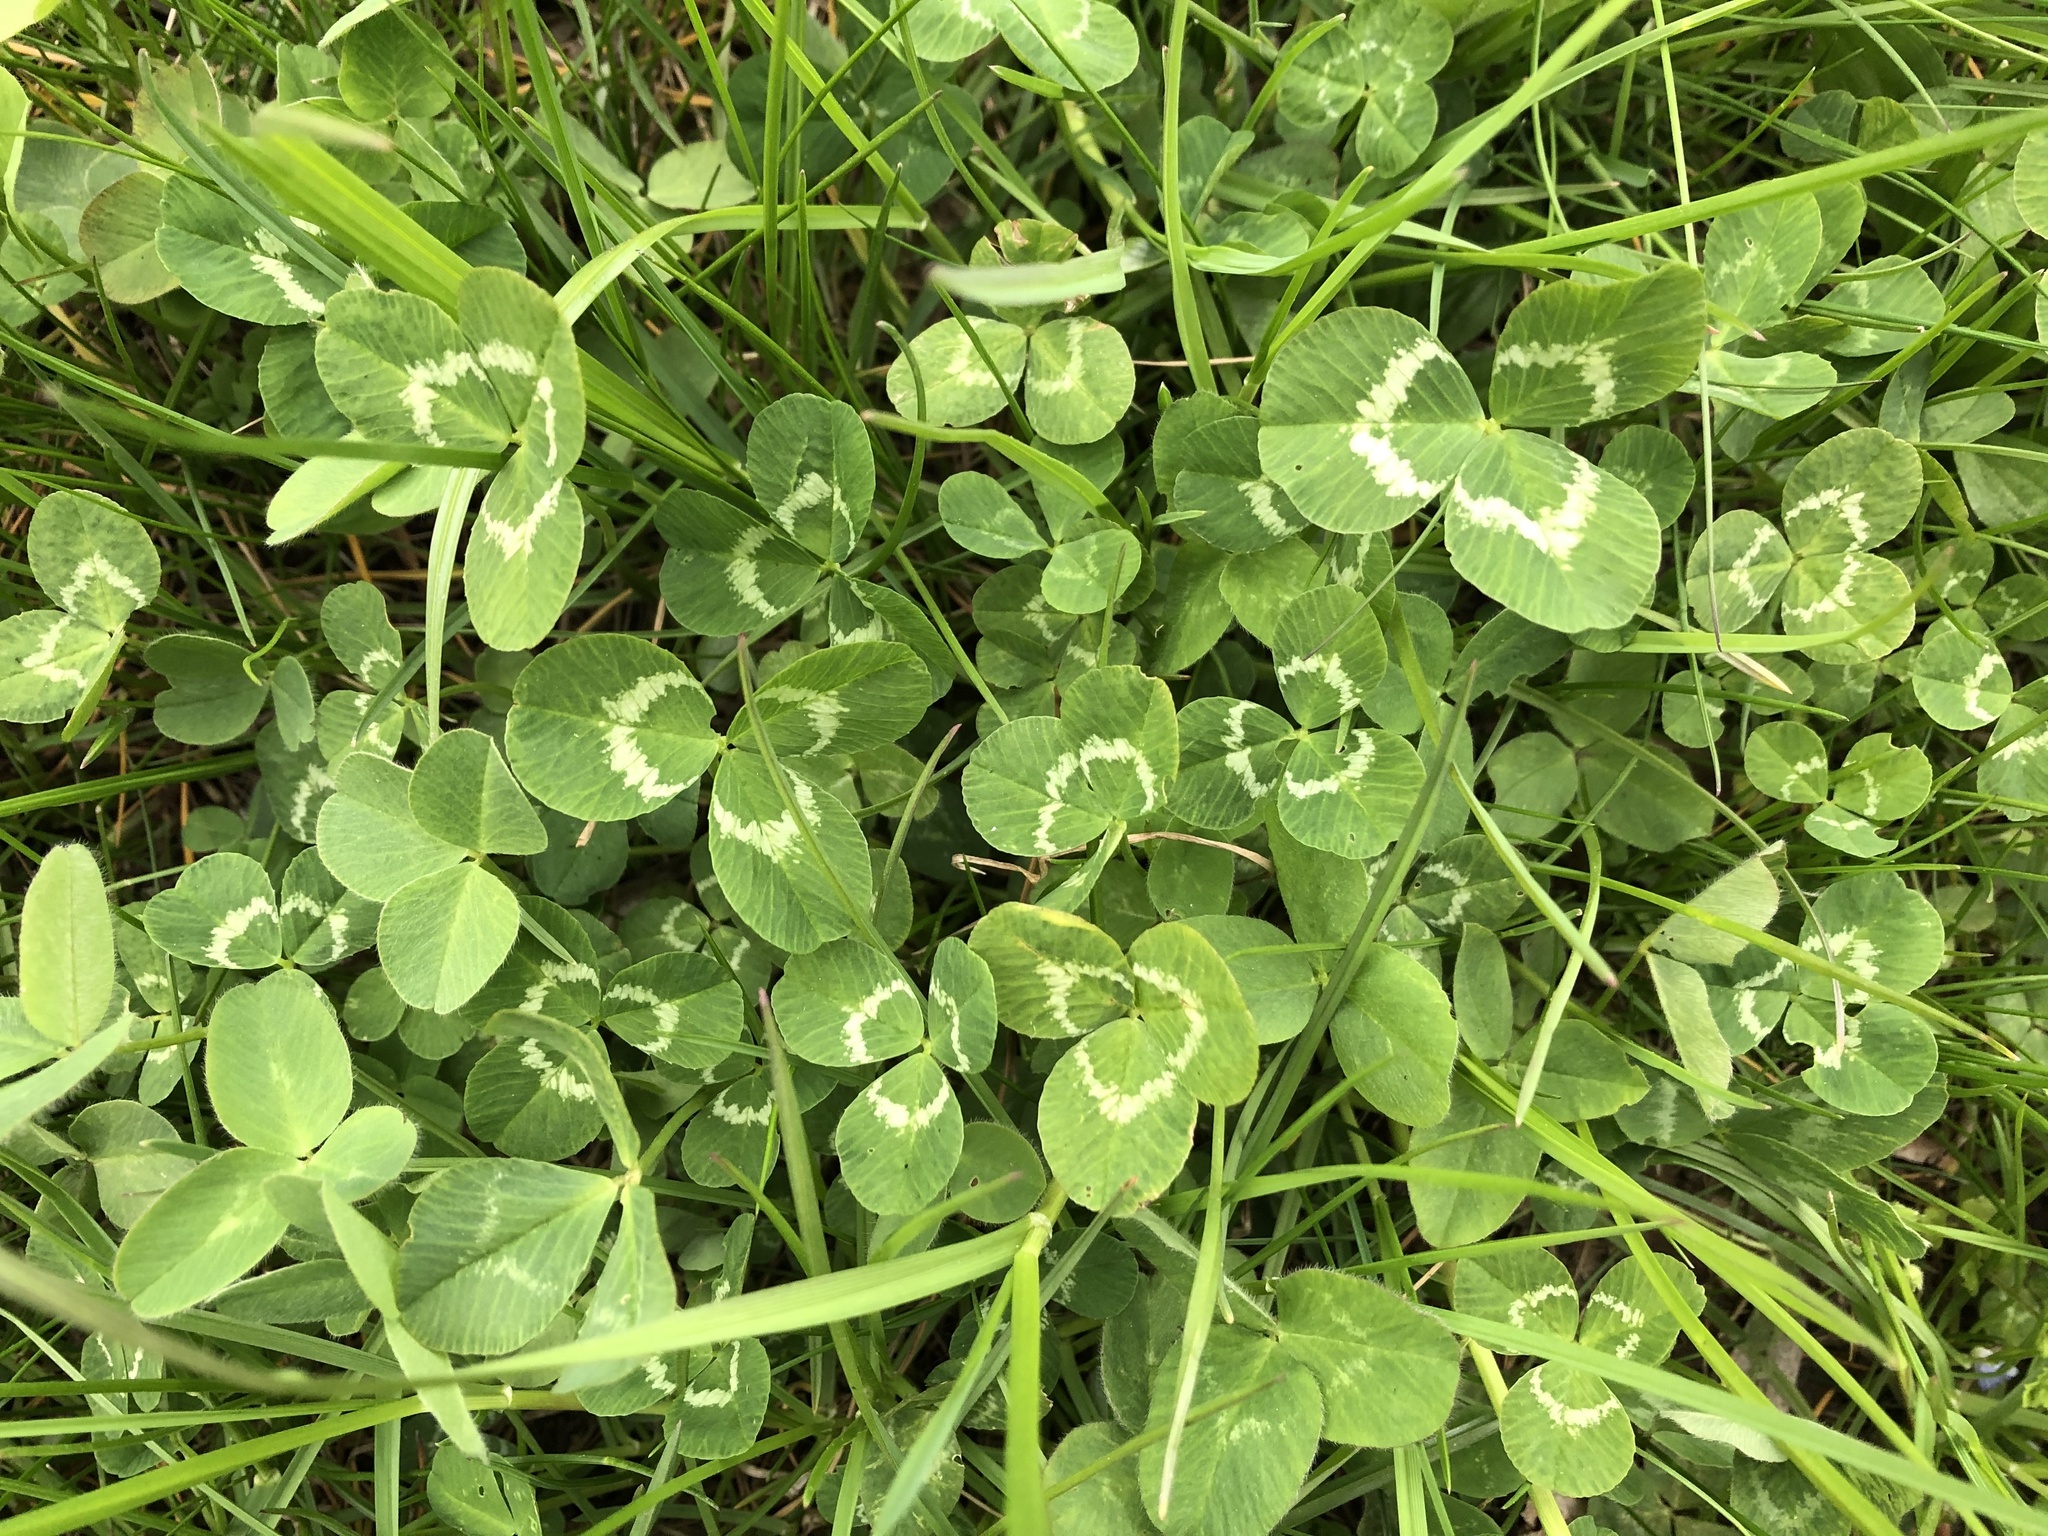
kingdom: Plantae
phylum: Tracheophyta
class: Magnoliopsida
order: Fabales
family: Fabaceae
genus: Trifolium
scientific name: Trifolium repens
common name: White clover
